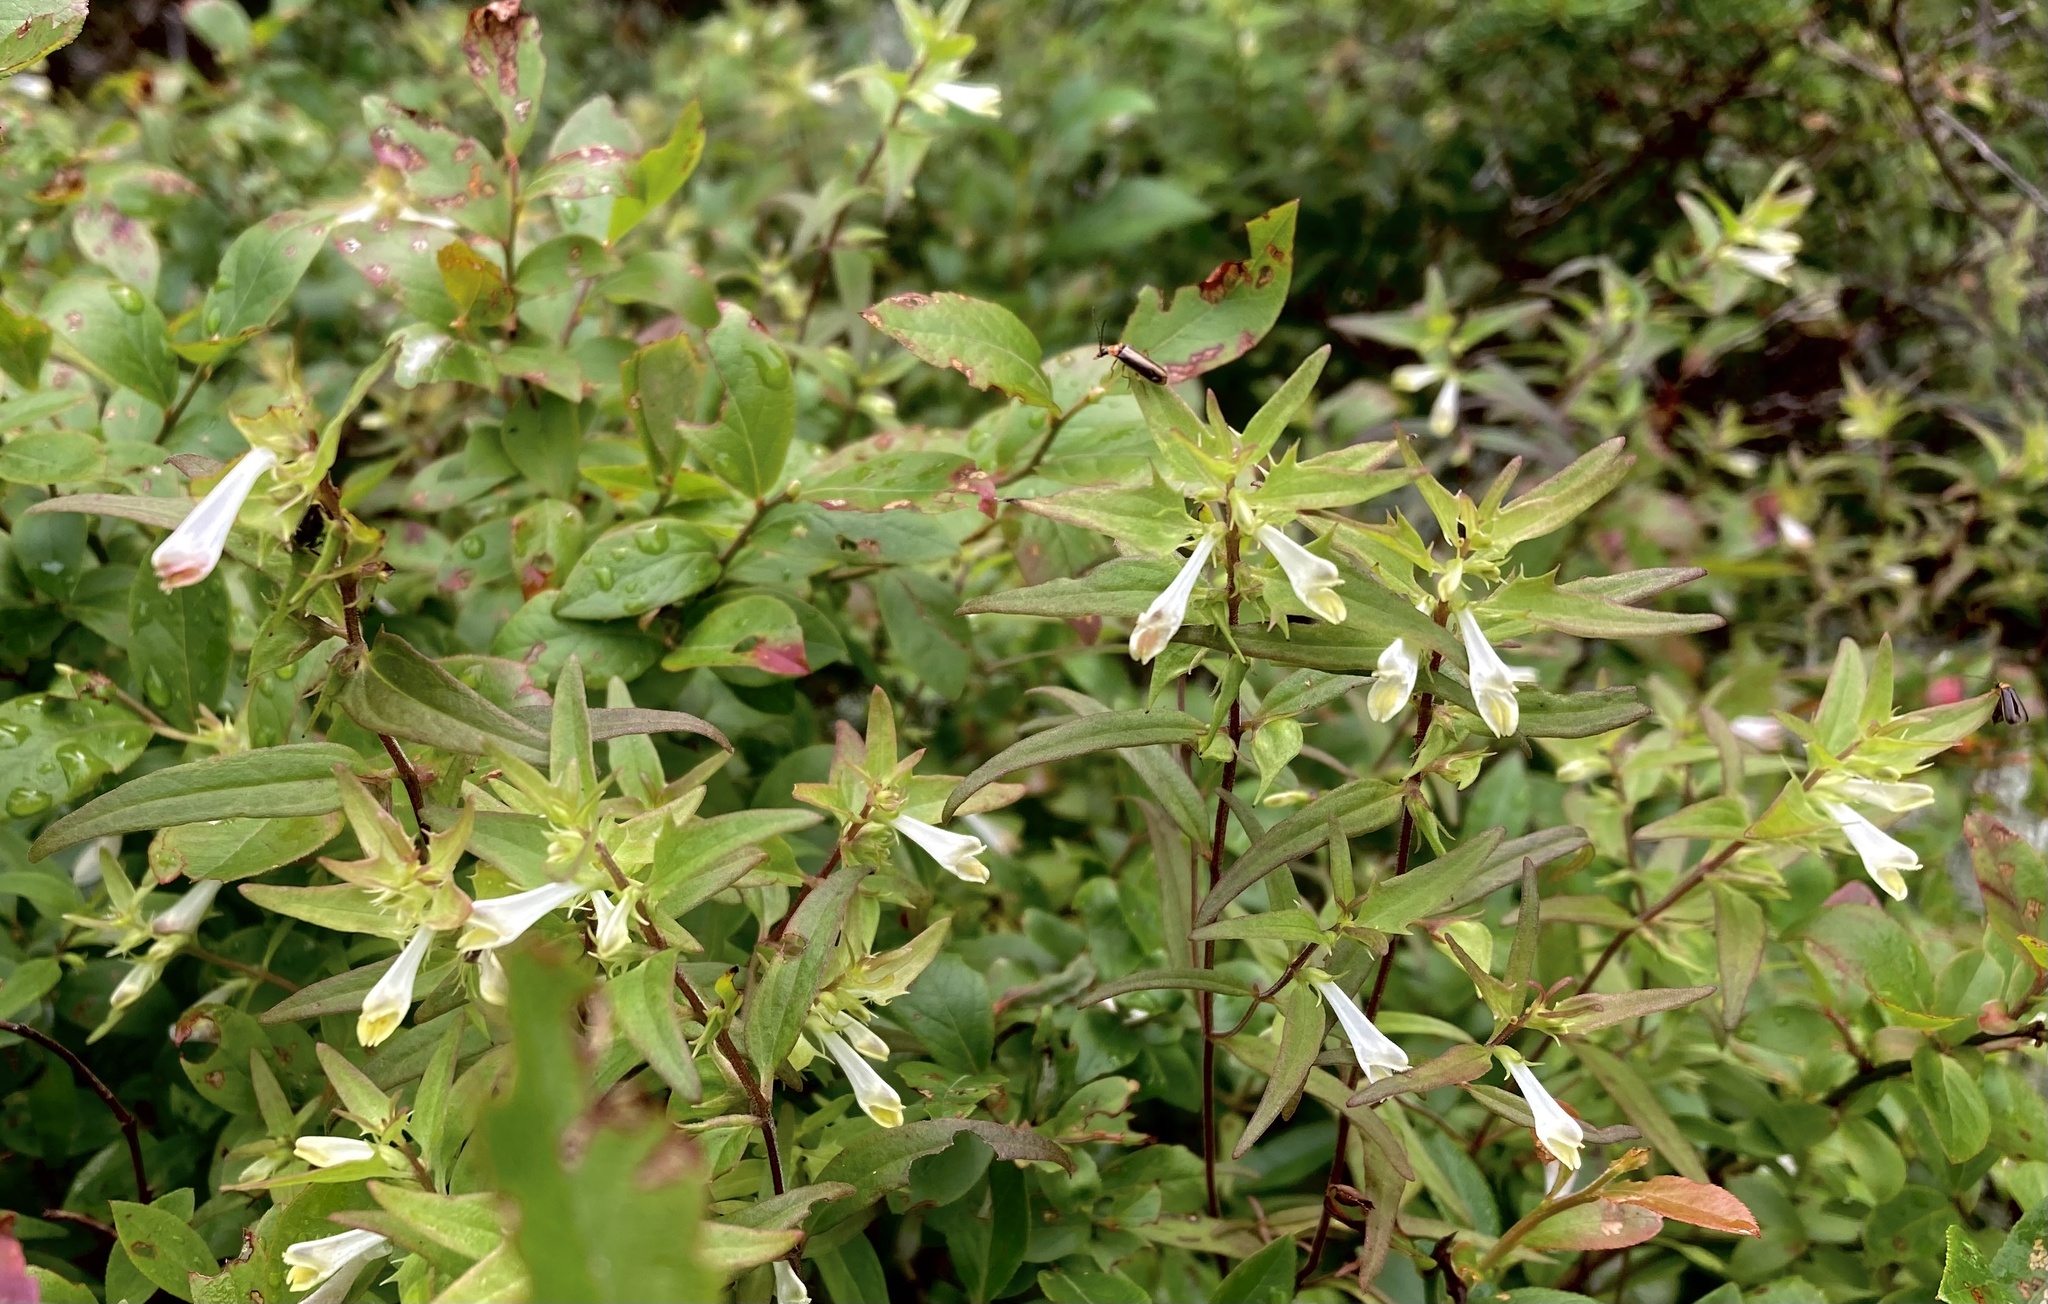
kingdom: Plantae
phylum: Tracheophyta
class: Magnoliopsida
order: Lamiales
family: Orobanchaceae
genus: Melampyrum
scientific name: Melampyrum lineare
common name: American cow-wheat
